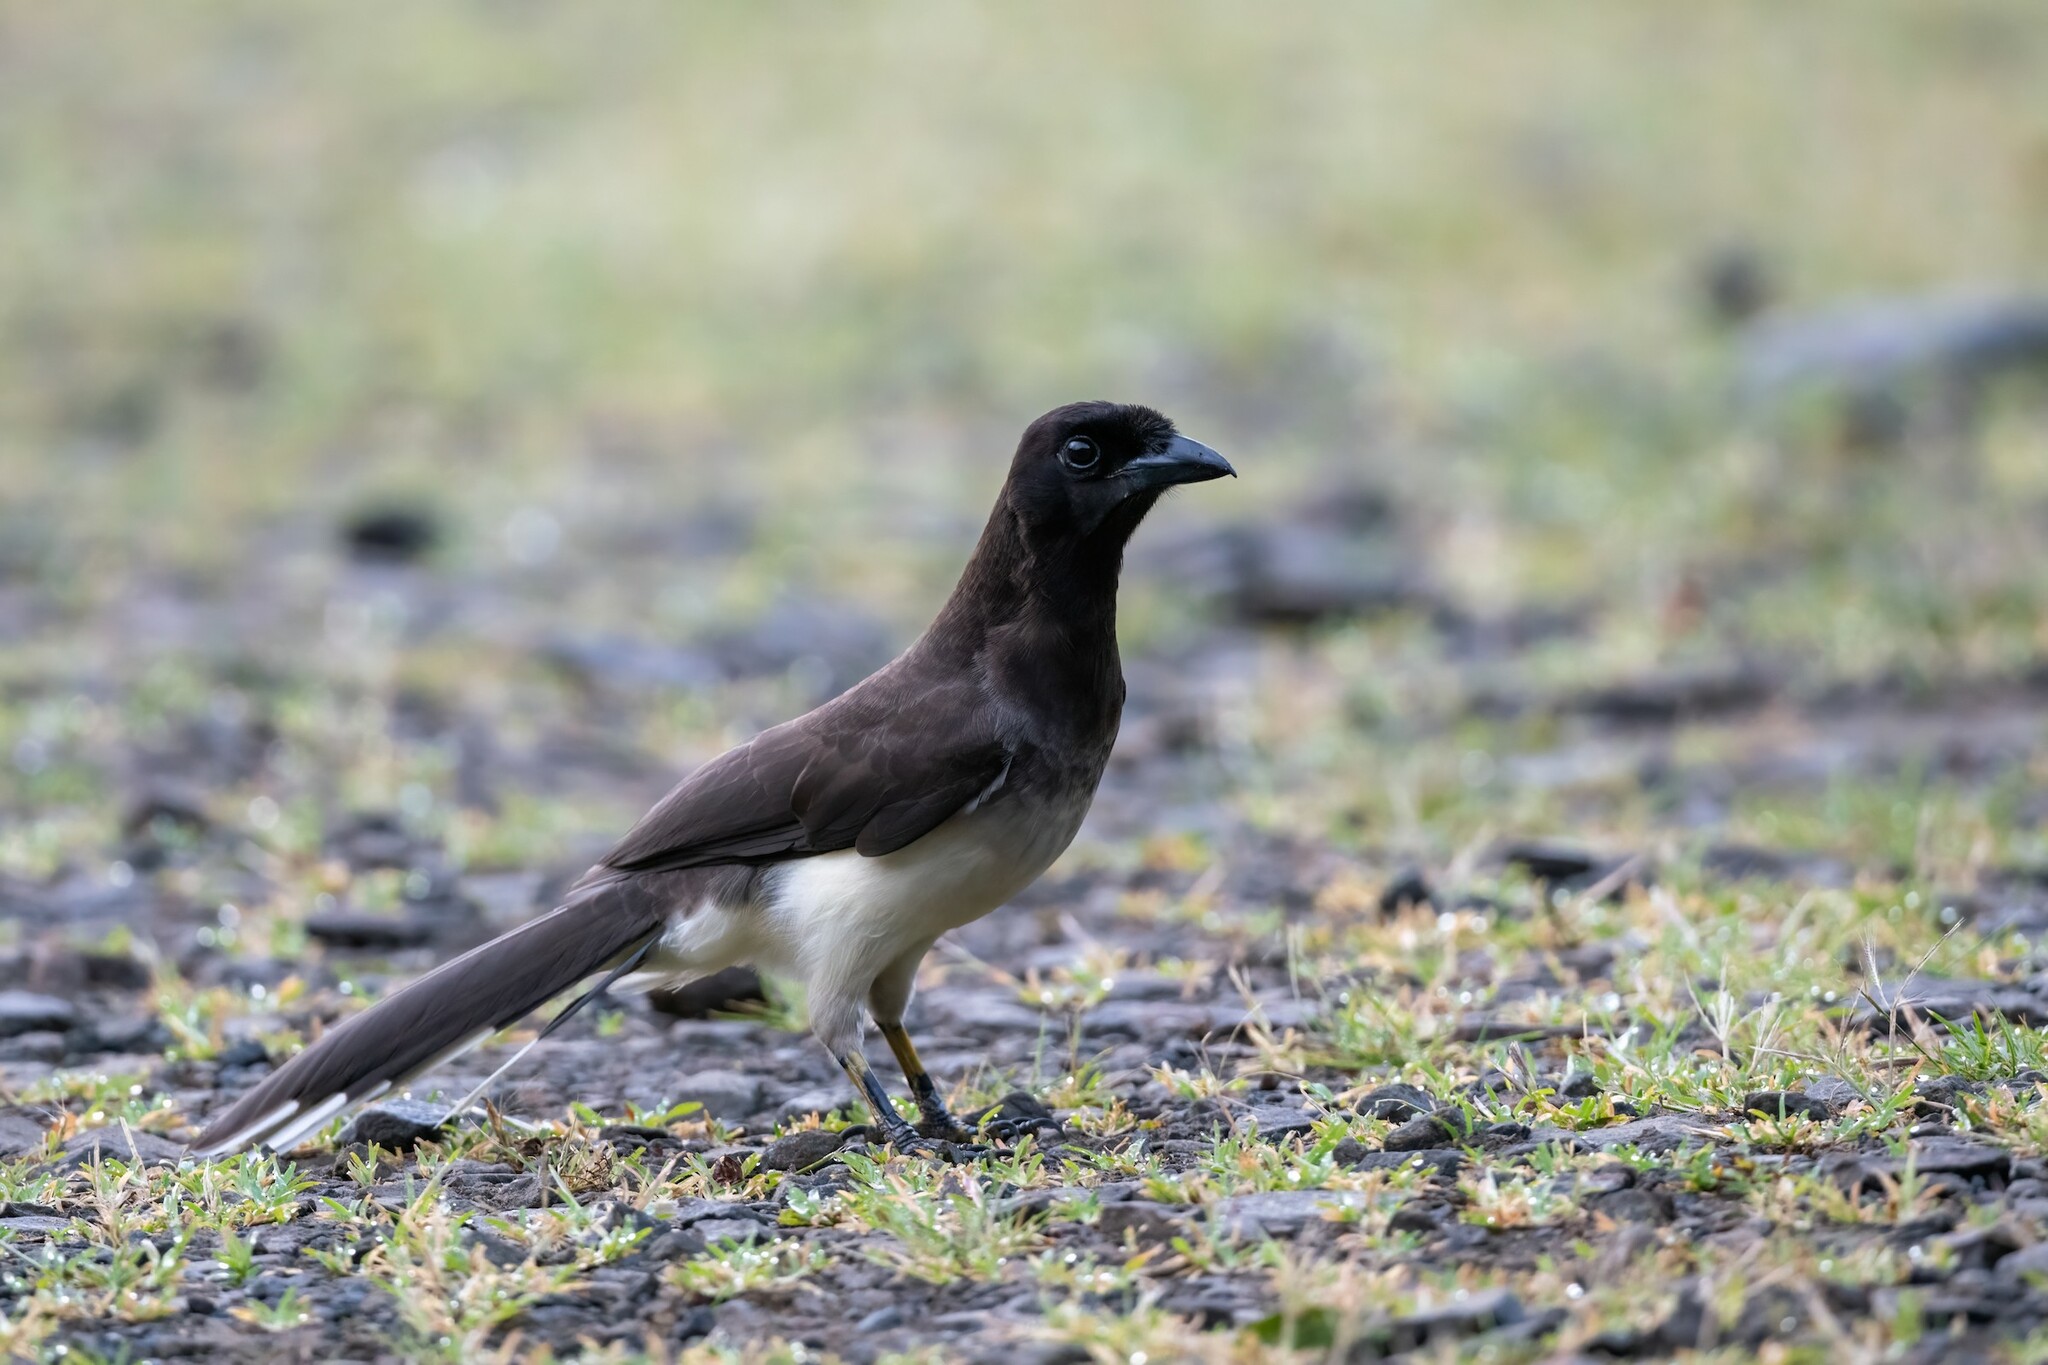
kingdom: Animalia
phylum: Chordata
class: Aves
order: Passeriformes
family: Corvidae
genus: Psilorhinus
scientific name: Psilorhinus morio
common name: Brown jay
